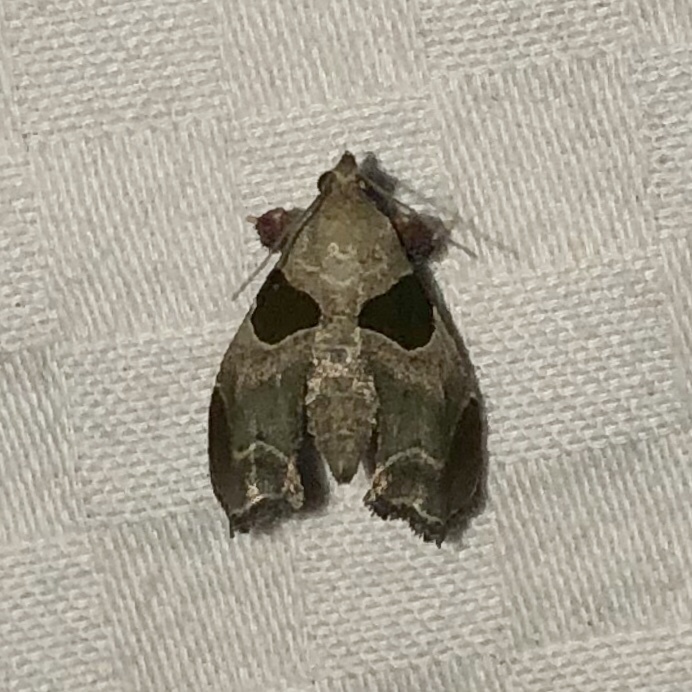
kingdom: Animalia
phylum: Arthropoda
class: Insecta
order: Lepidoptera
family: Pyralidae
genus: Tosale
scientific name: Tosale oviplagalis
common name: Dimorphic tosale moth
